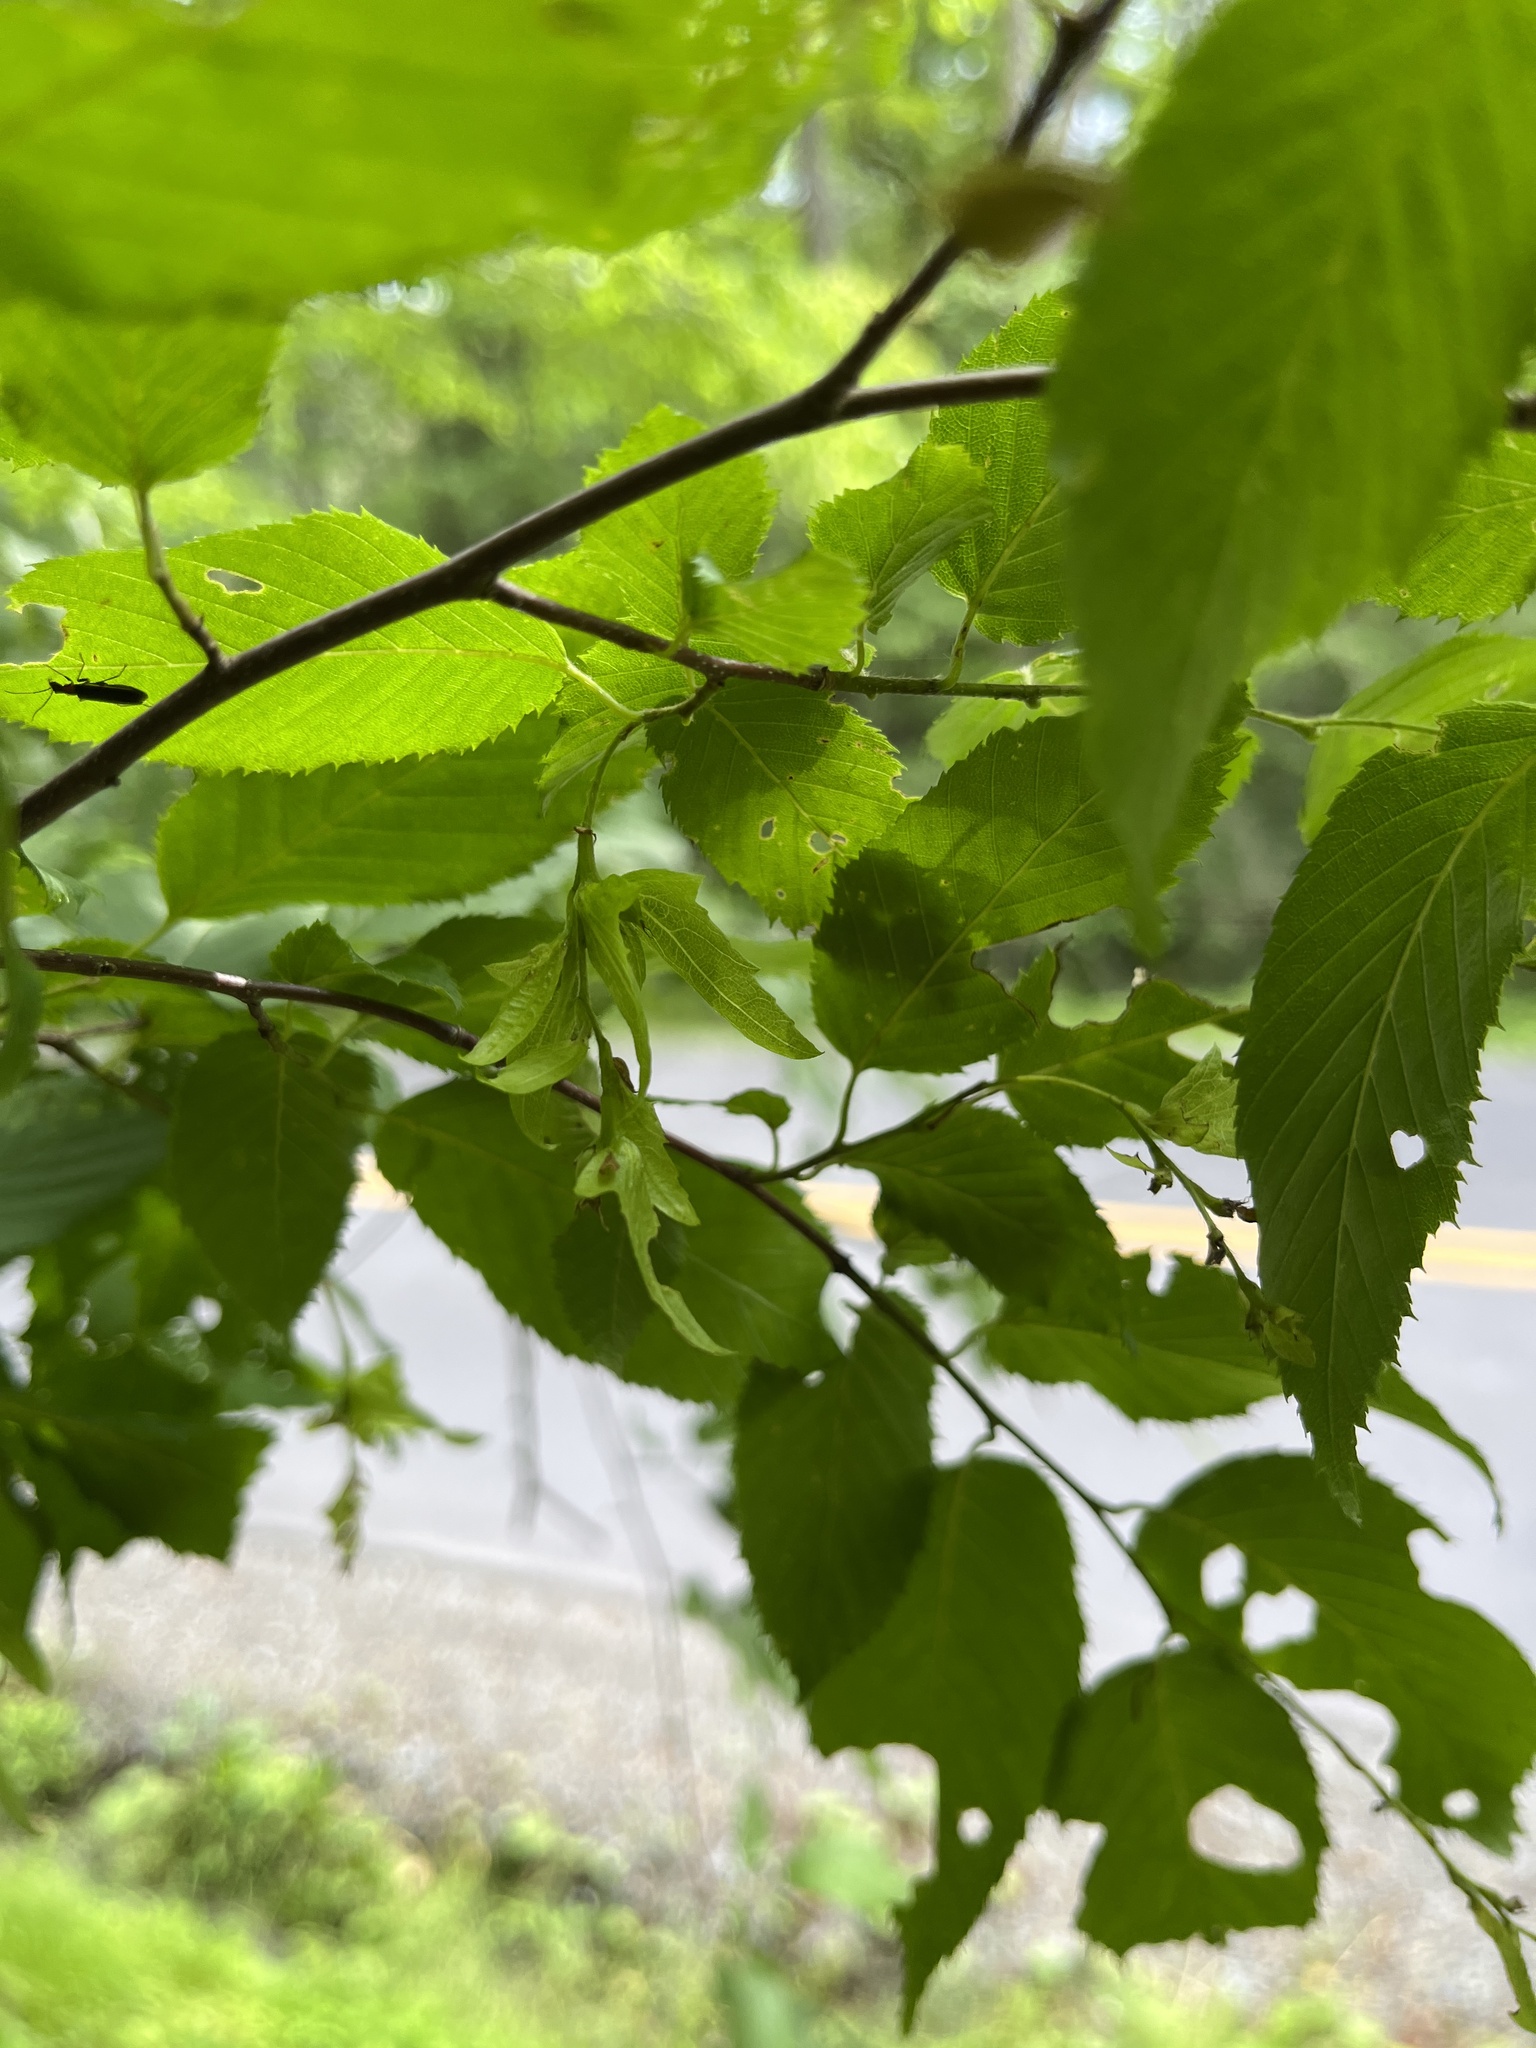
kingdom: Plantae
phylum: Tracheophyta
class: Magnoliopsida
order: Fagales
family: Betulaceae
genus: Carpinus
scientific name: Carpinus caroliniana
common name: American hornbeam
